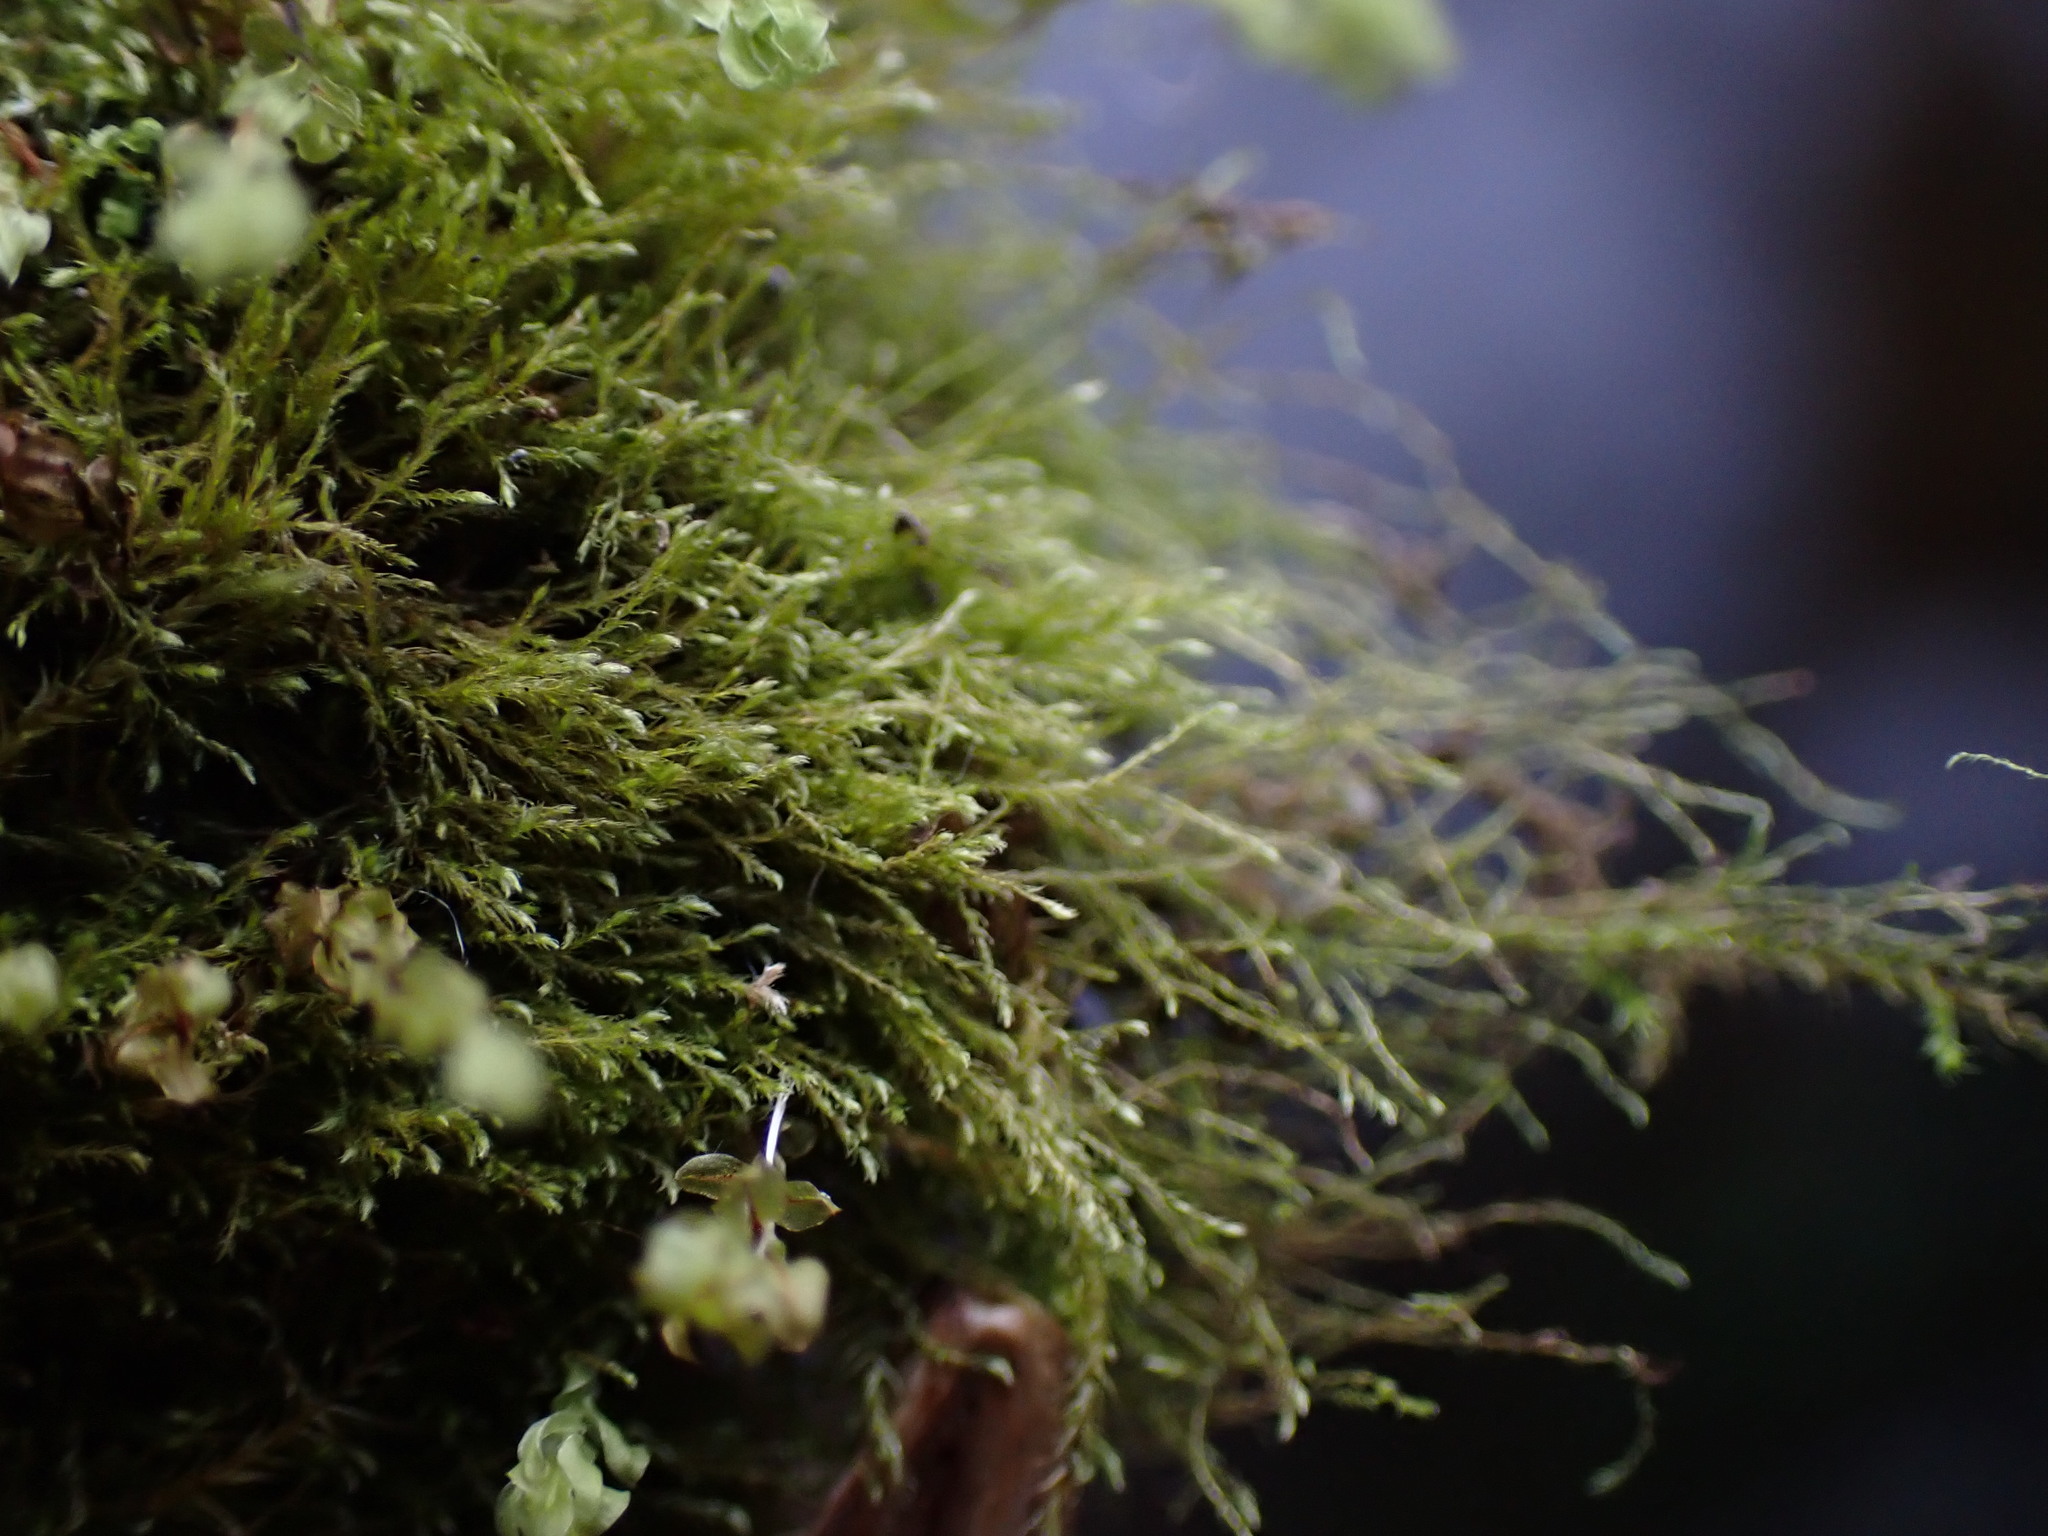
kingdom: Plantae
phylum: Bryophyta
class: Bryopsida
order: Hypnales
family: Plagiotheciaceae
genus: Platydictya
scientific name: Platydictya jungermannioides
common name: False willow moss
